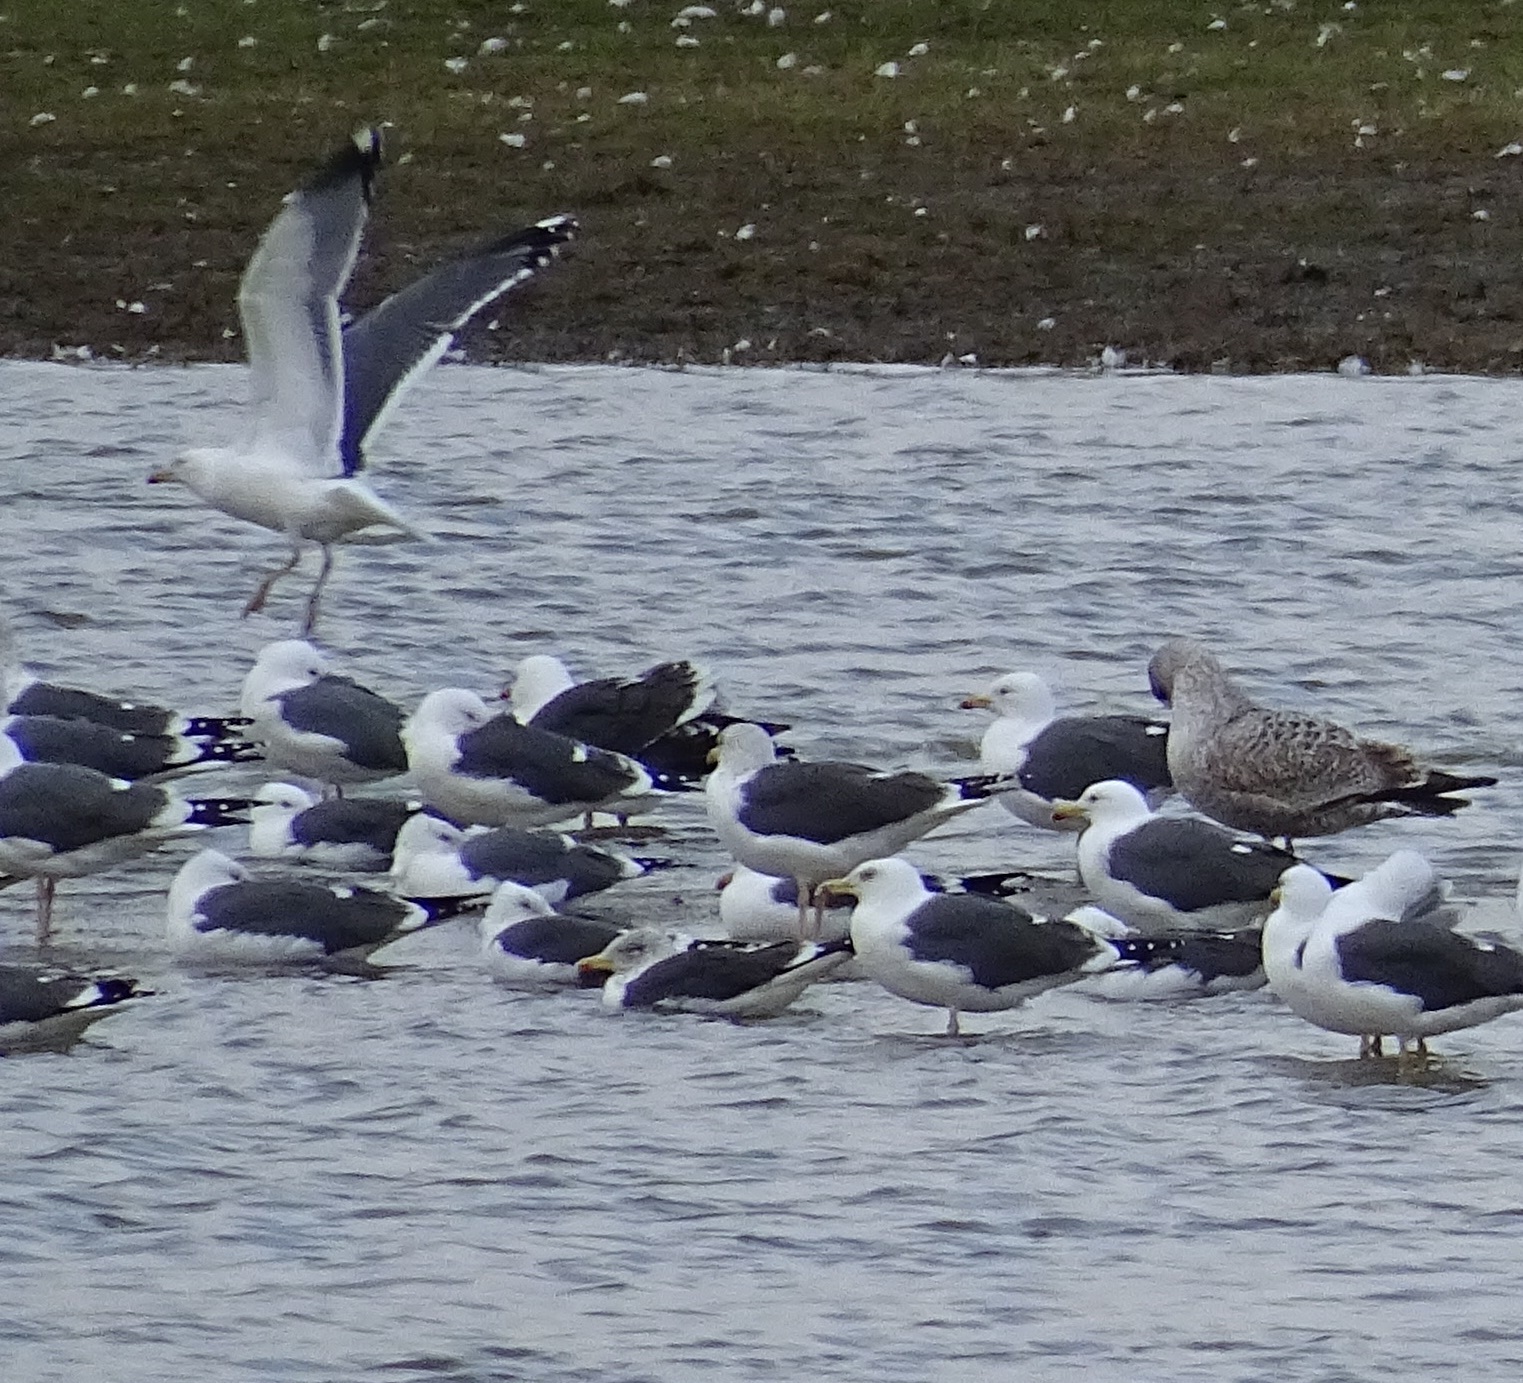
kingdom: Animalia
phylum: Chordata
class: Aves
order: Charadriiformes
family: Laridae
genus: Larus
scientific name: Larus fuscus
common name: Lesser black-backed gull
